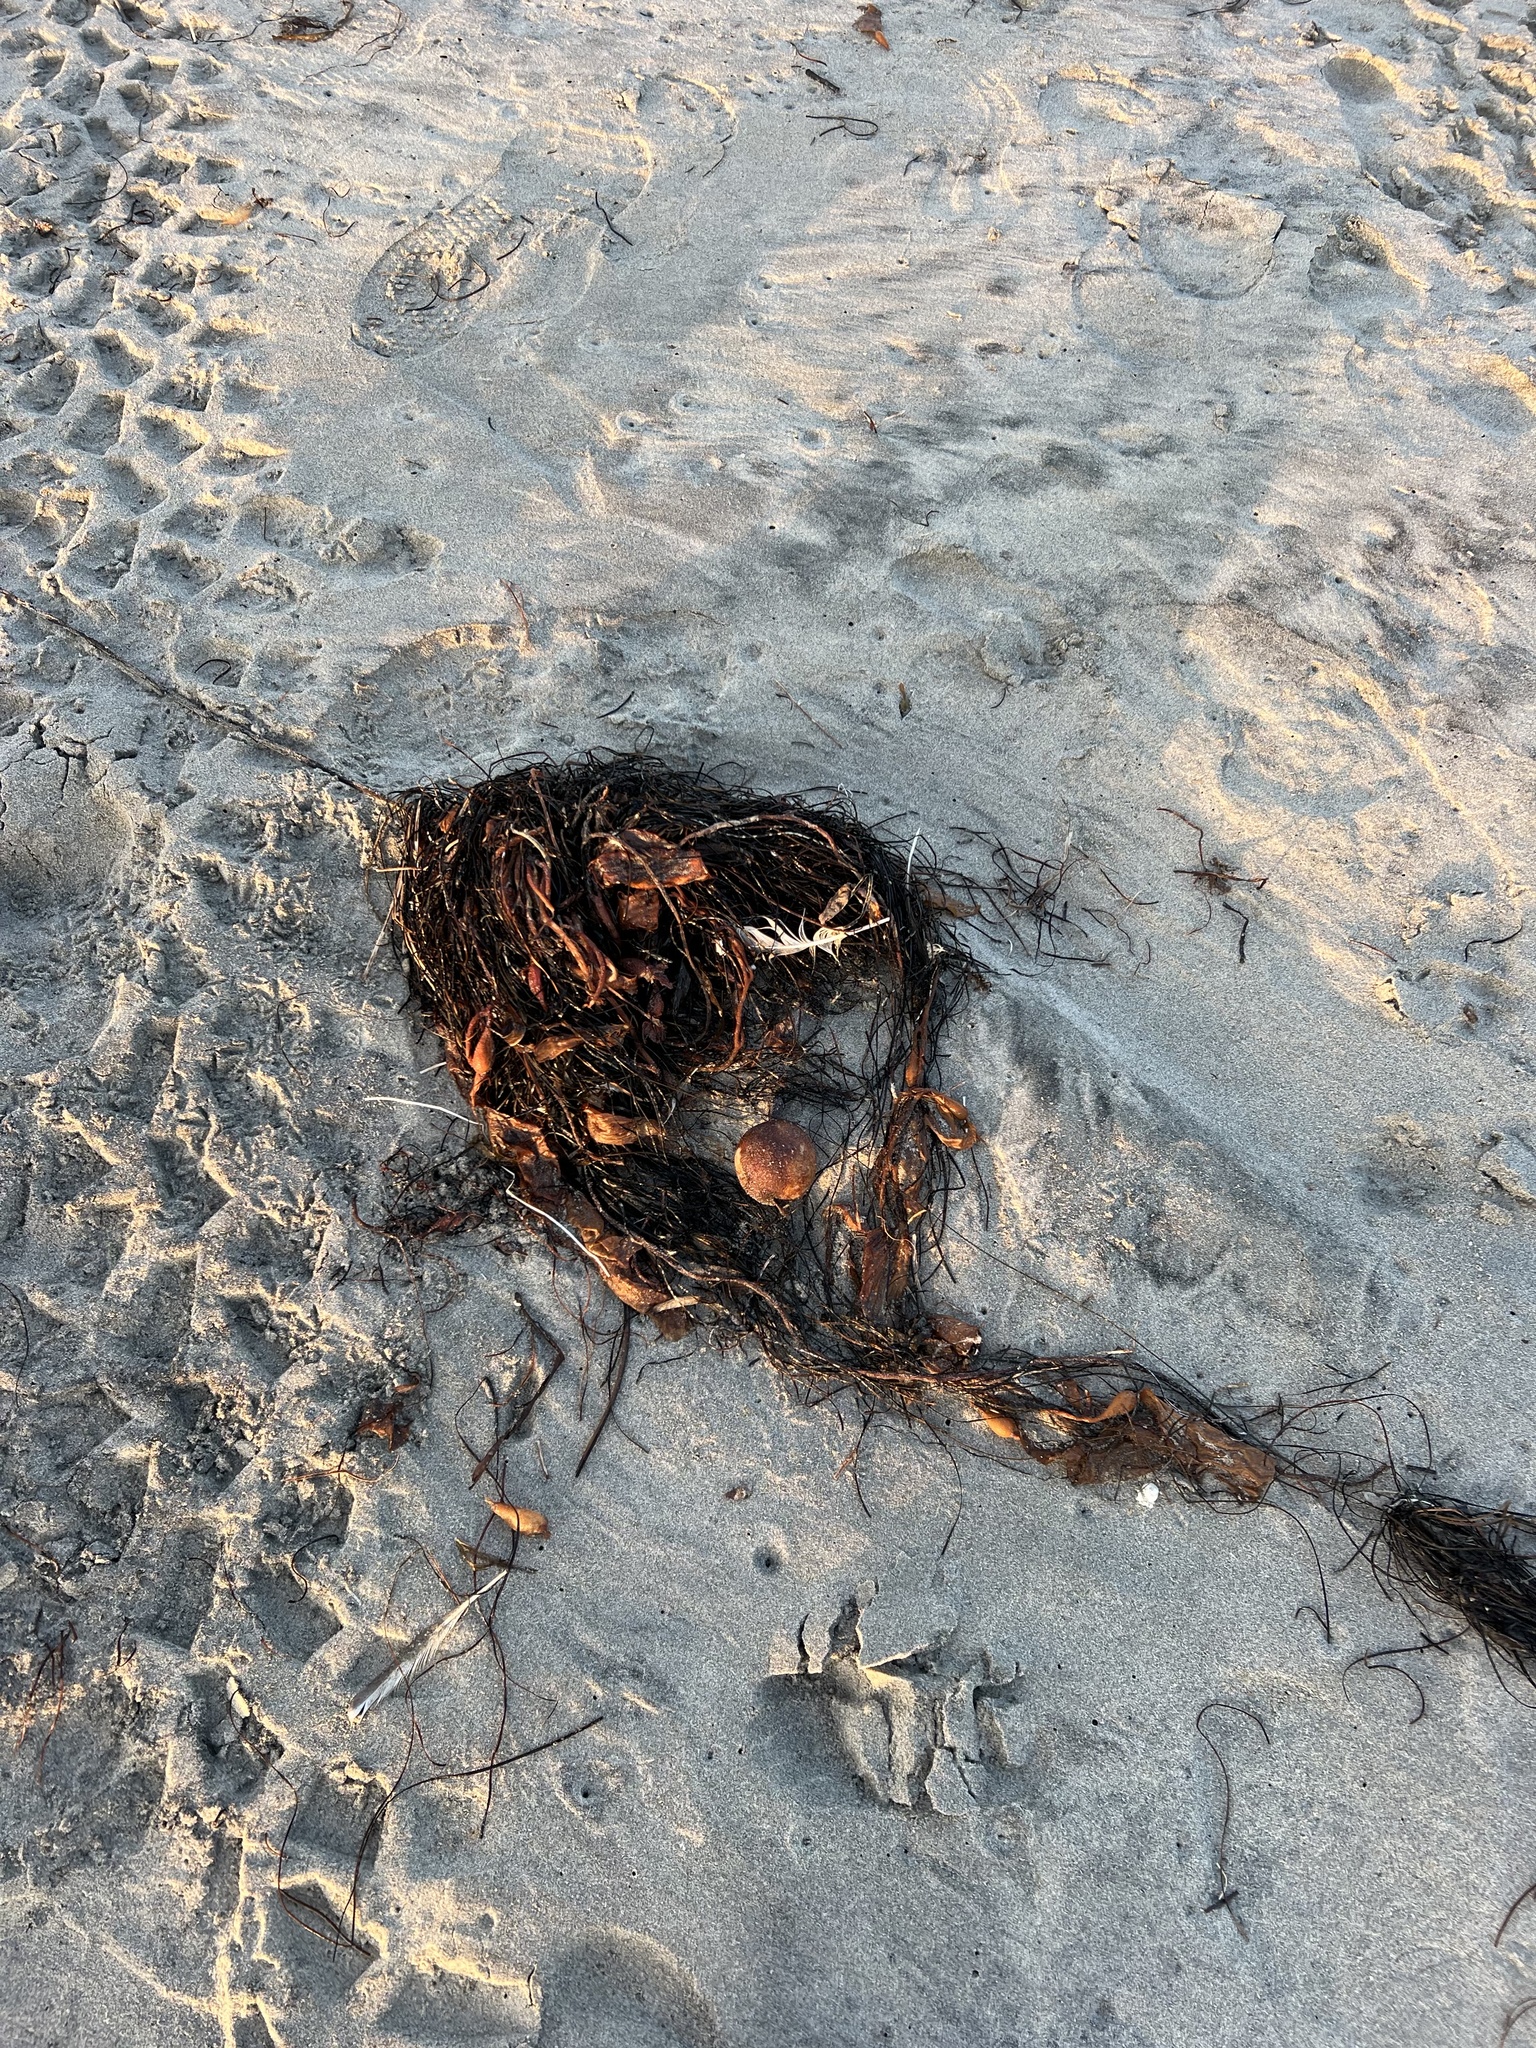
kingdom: Chromista
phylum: Ochrophyta
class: Phaeophyceae
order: Laminariales
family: Laminariaceae
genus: Pelagophycus
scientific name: Pelagophycus porra
